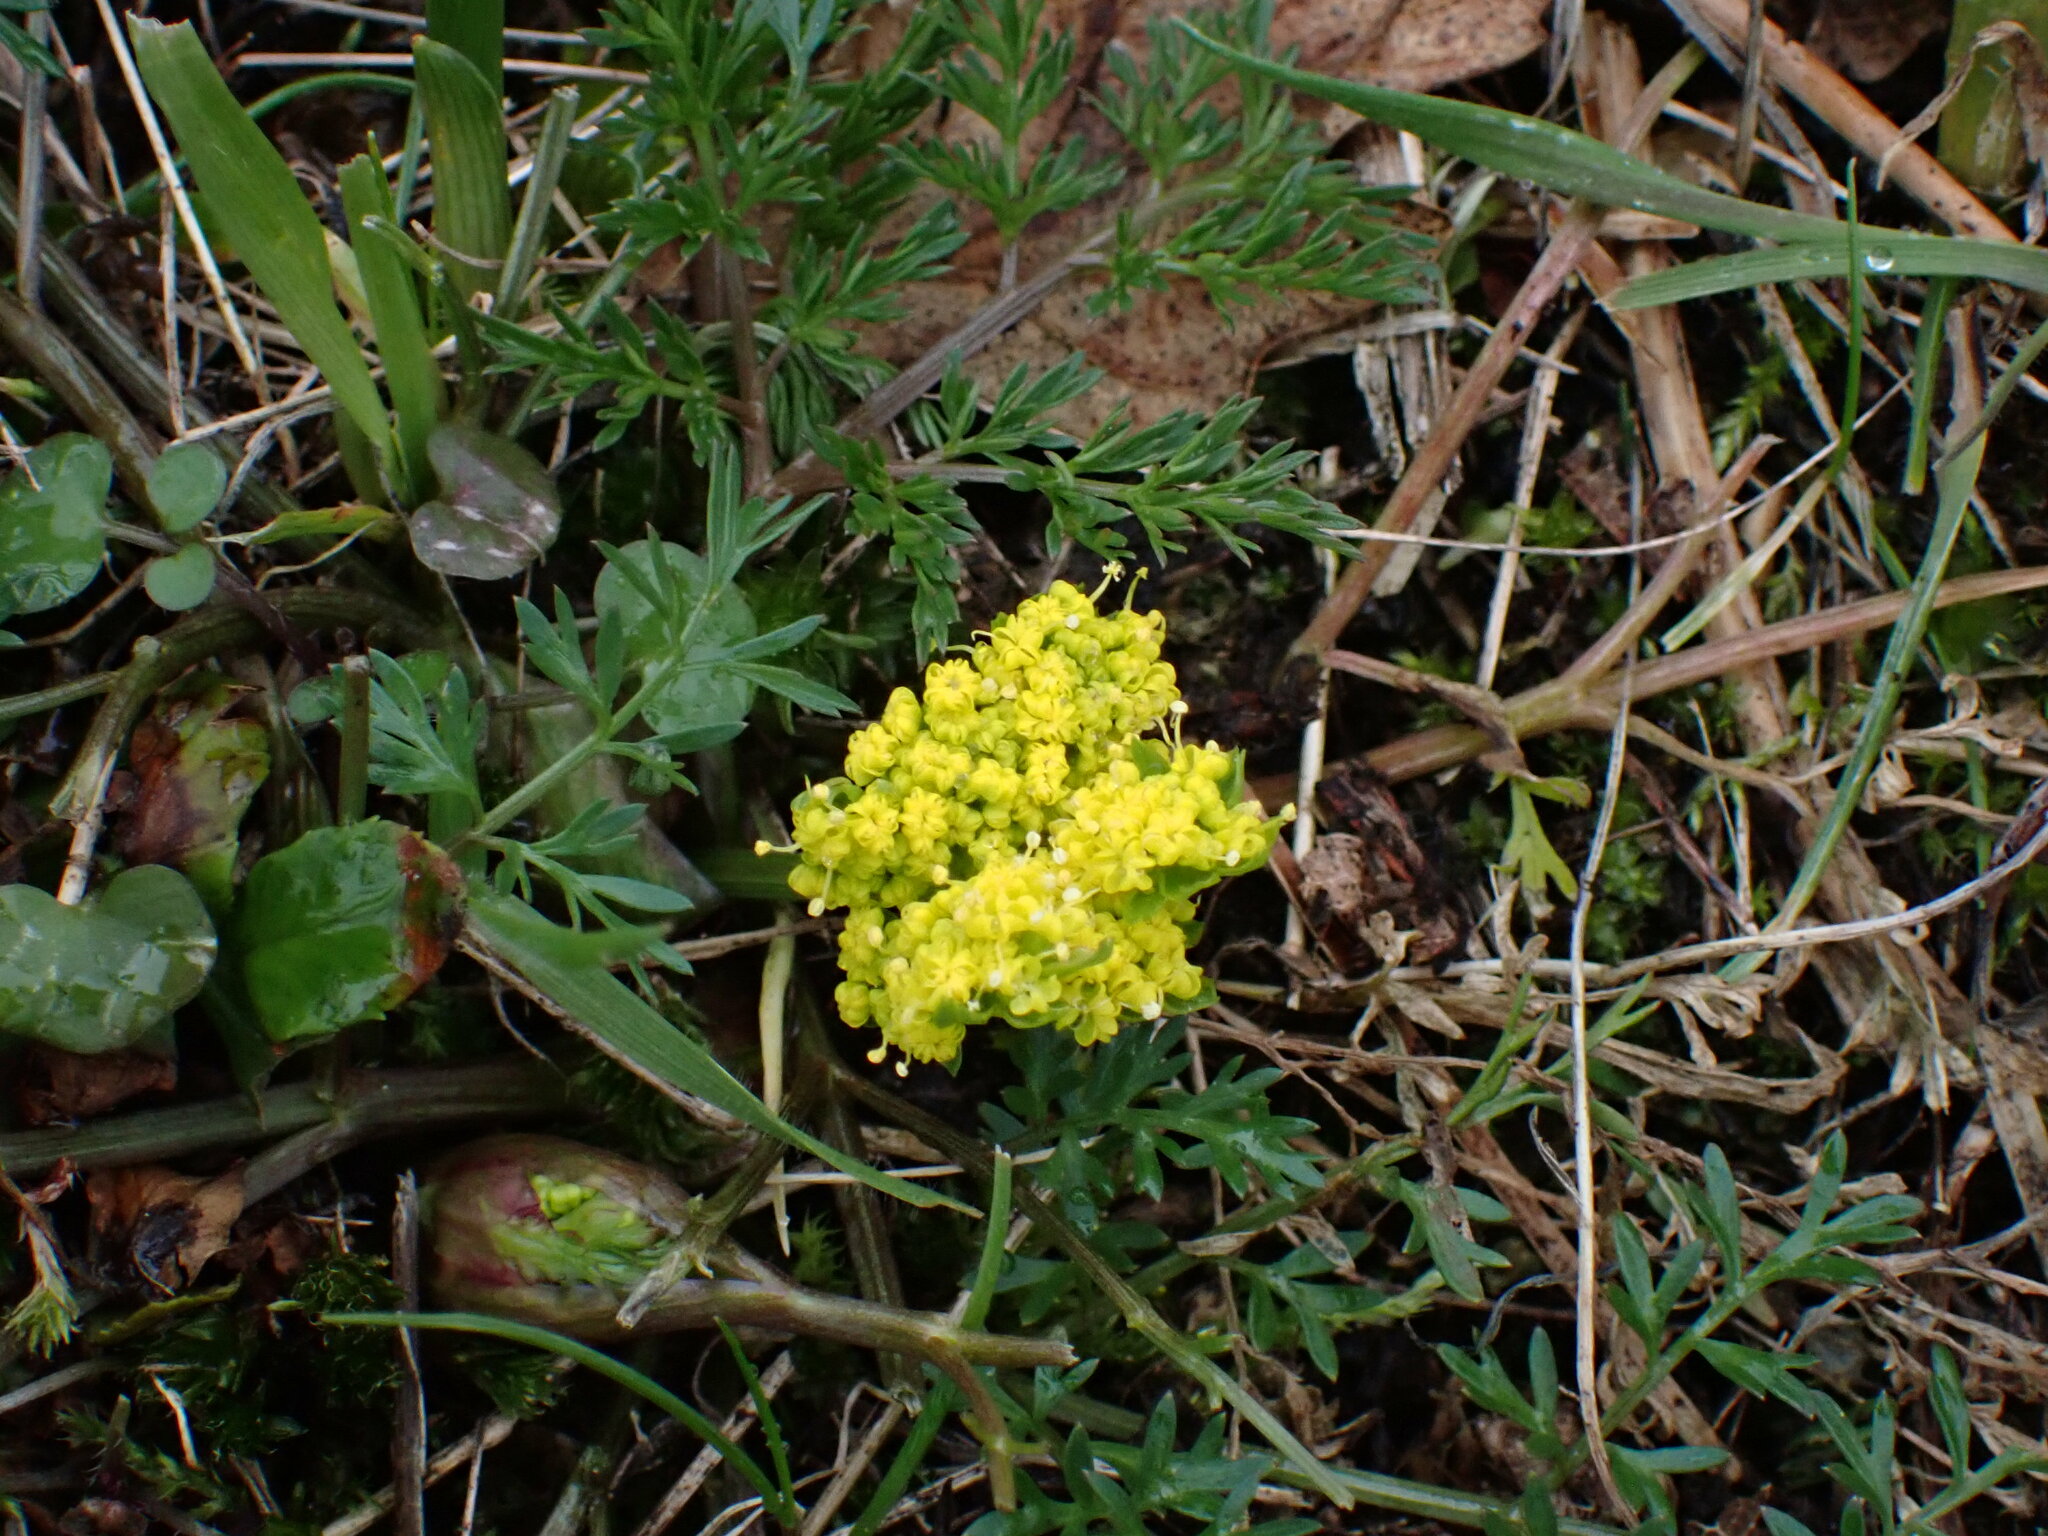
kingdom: Plantae
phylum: Tracheophyta
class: Magnoliopsida
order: Apiales
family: Apiaceae
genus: Lomatium
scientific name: Lomatium utriculatum
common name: Fine-leaf desert-parsley
